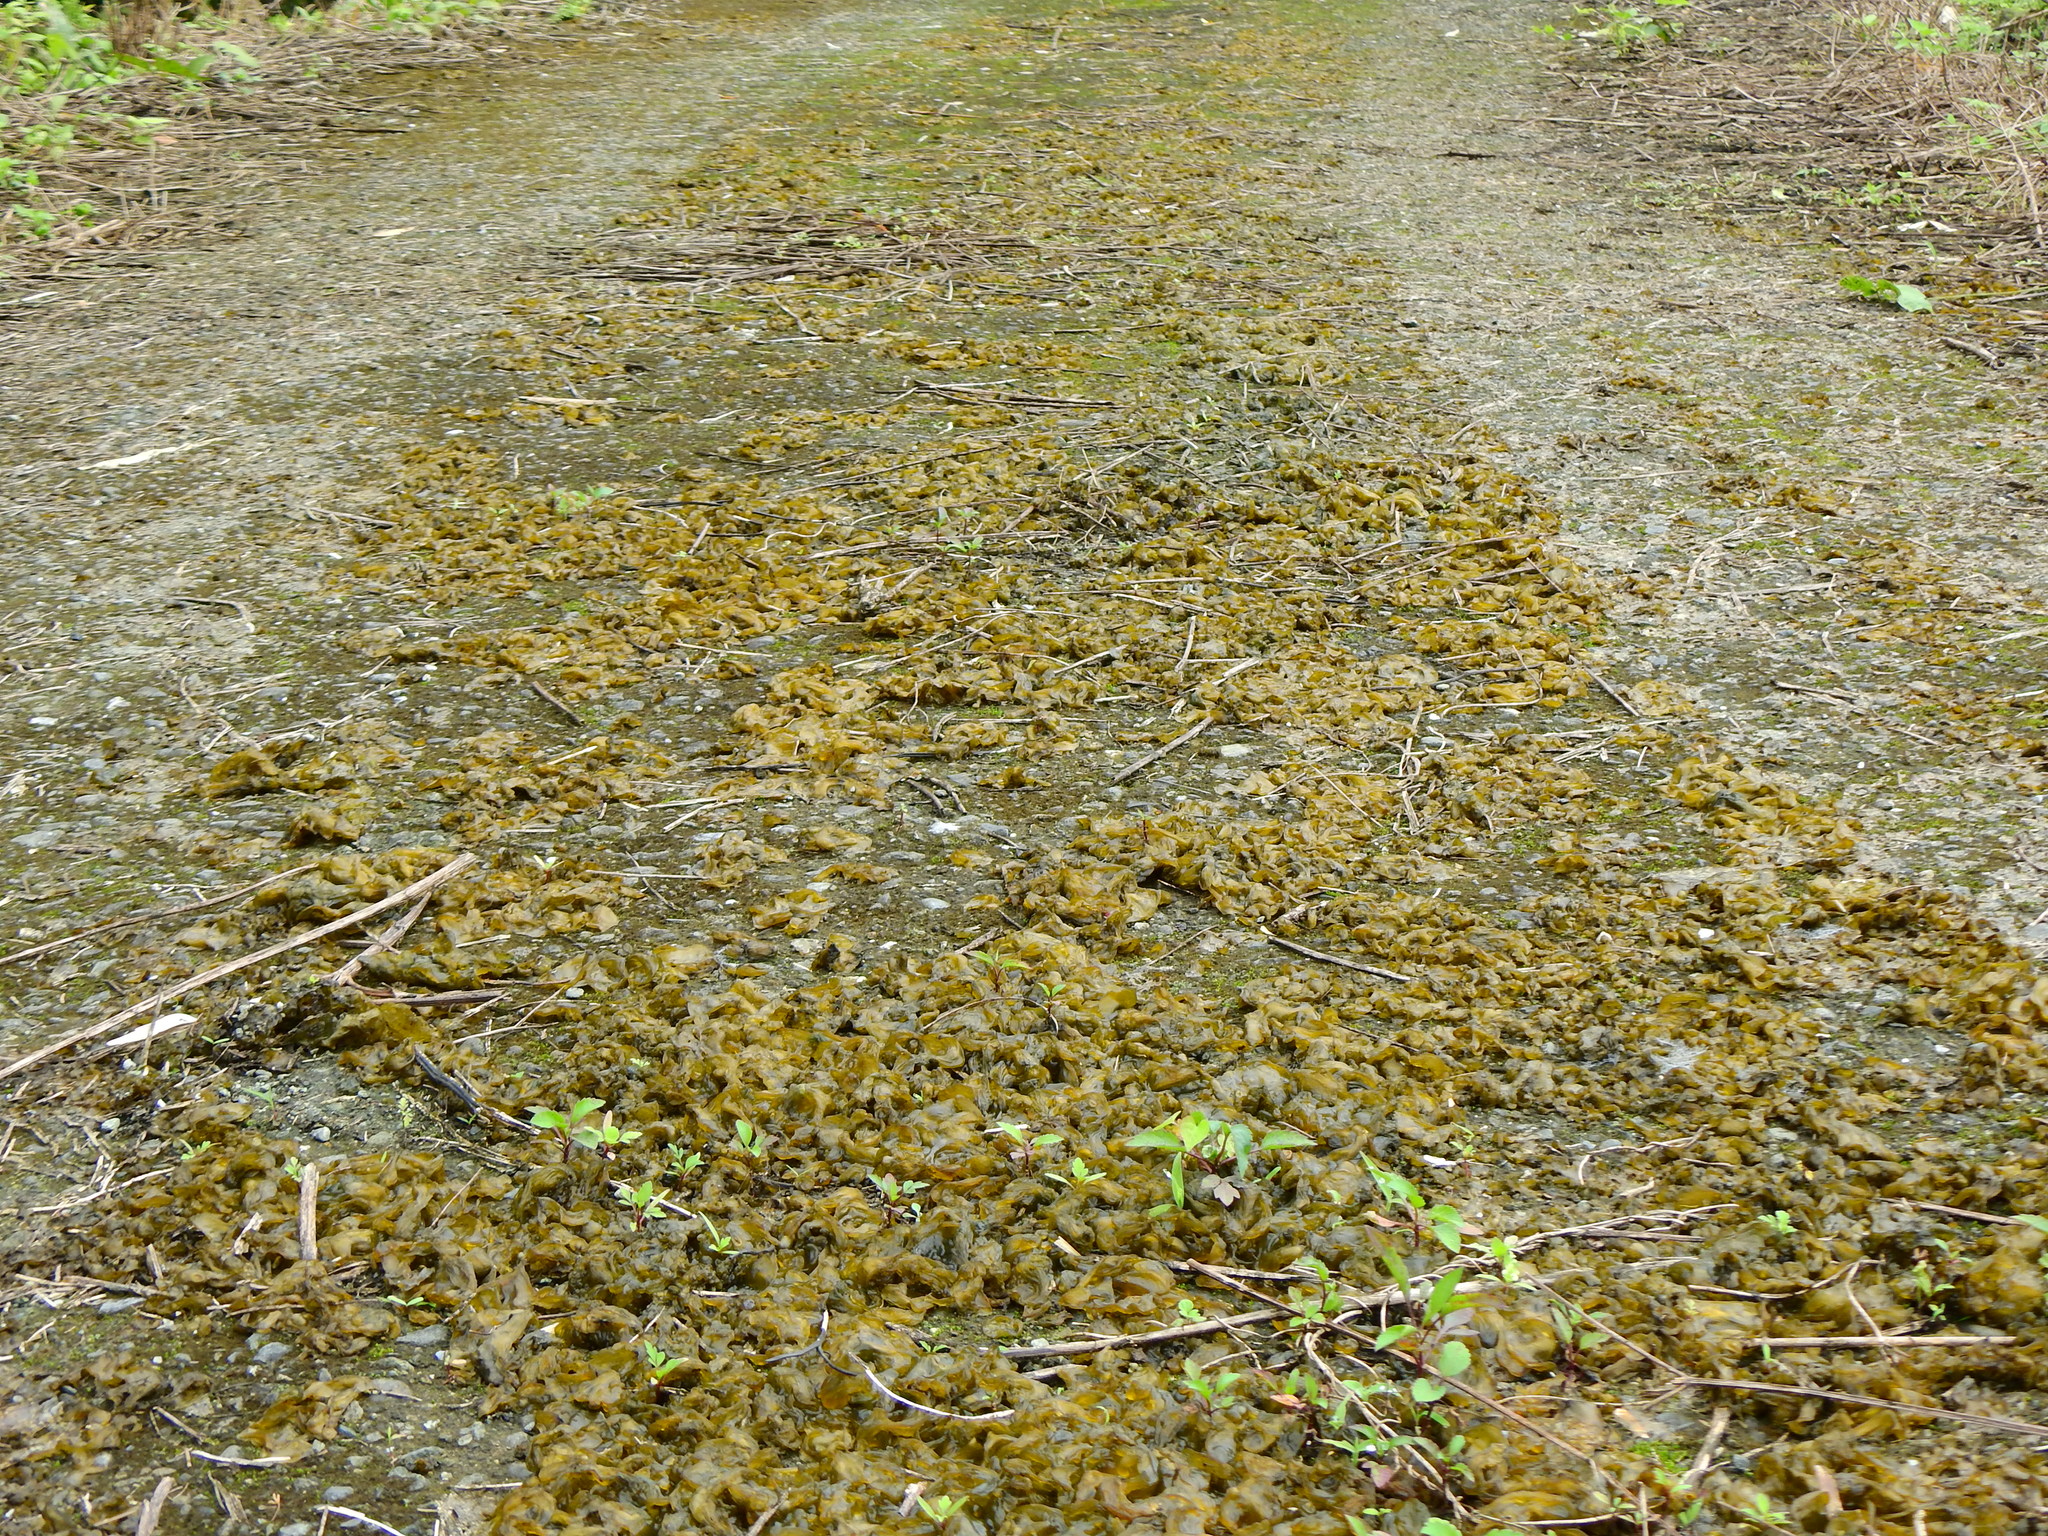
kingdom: Bacteria
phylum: Cyanobacteria
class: Cyanobacteriia
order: Cyanobacteriales
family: Nostocaceae
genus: Nostoc
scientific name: Nostoc commune
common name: Star jelly
